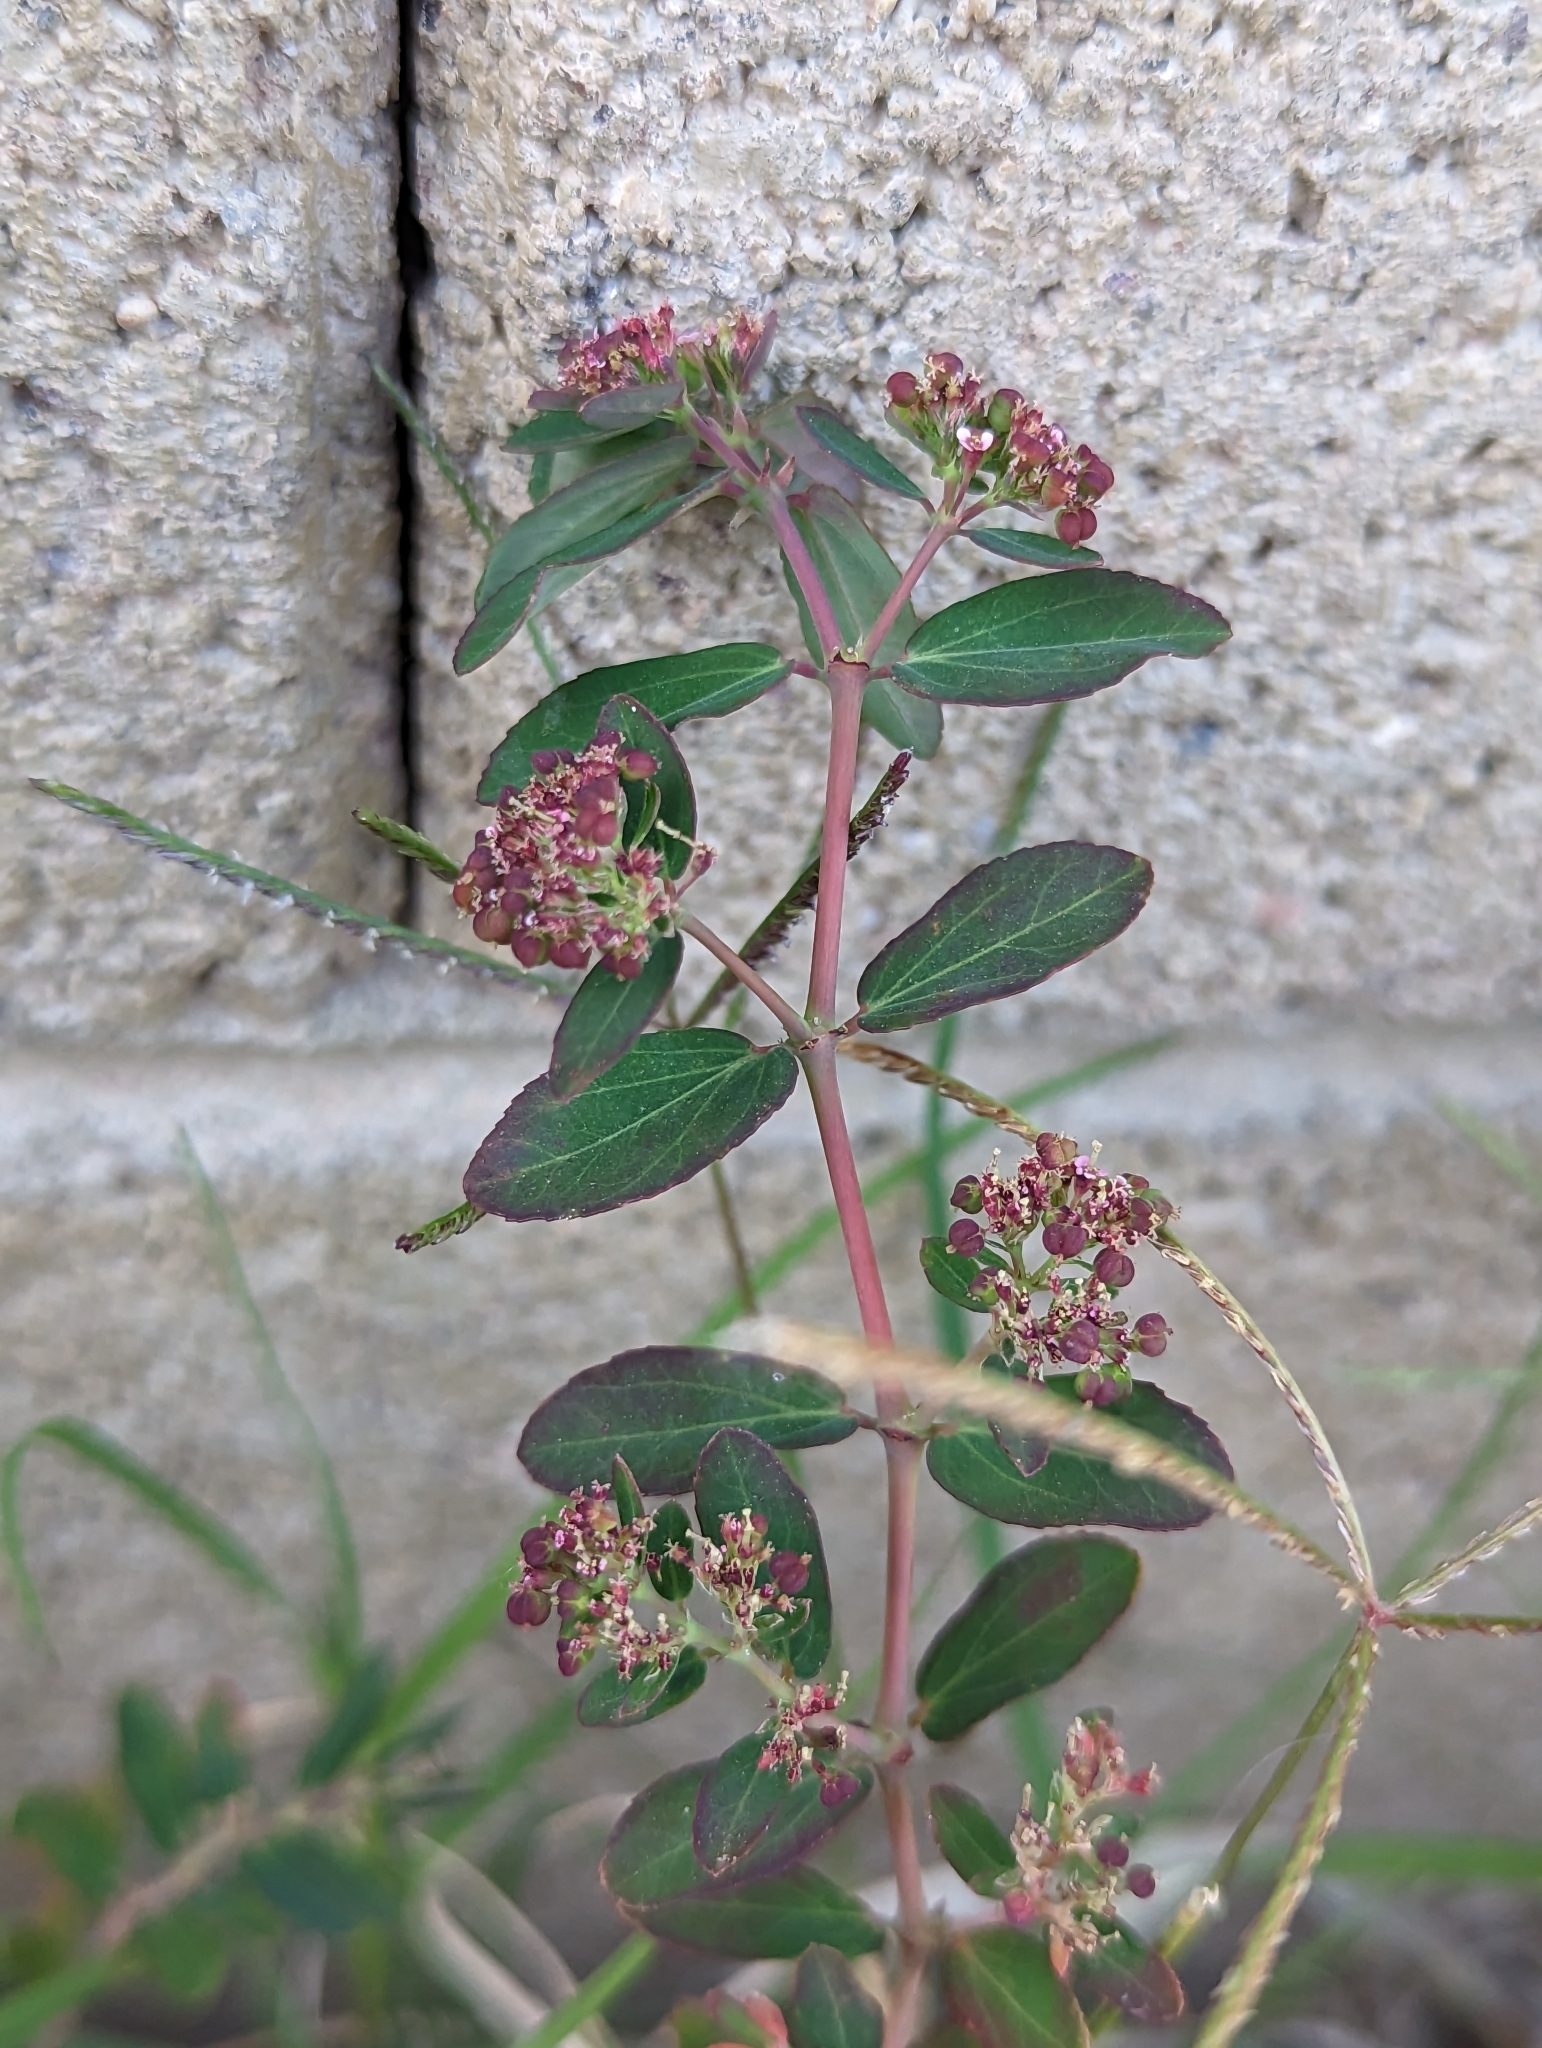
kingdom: Plantae
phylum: Tracheophyta
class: Magnoliopsida
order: Malpighiales
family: Euphorbiaceae
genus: Euphorbia
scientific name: Euphorbia hypericifolia
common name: Graceful sandmat
